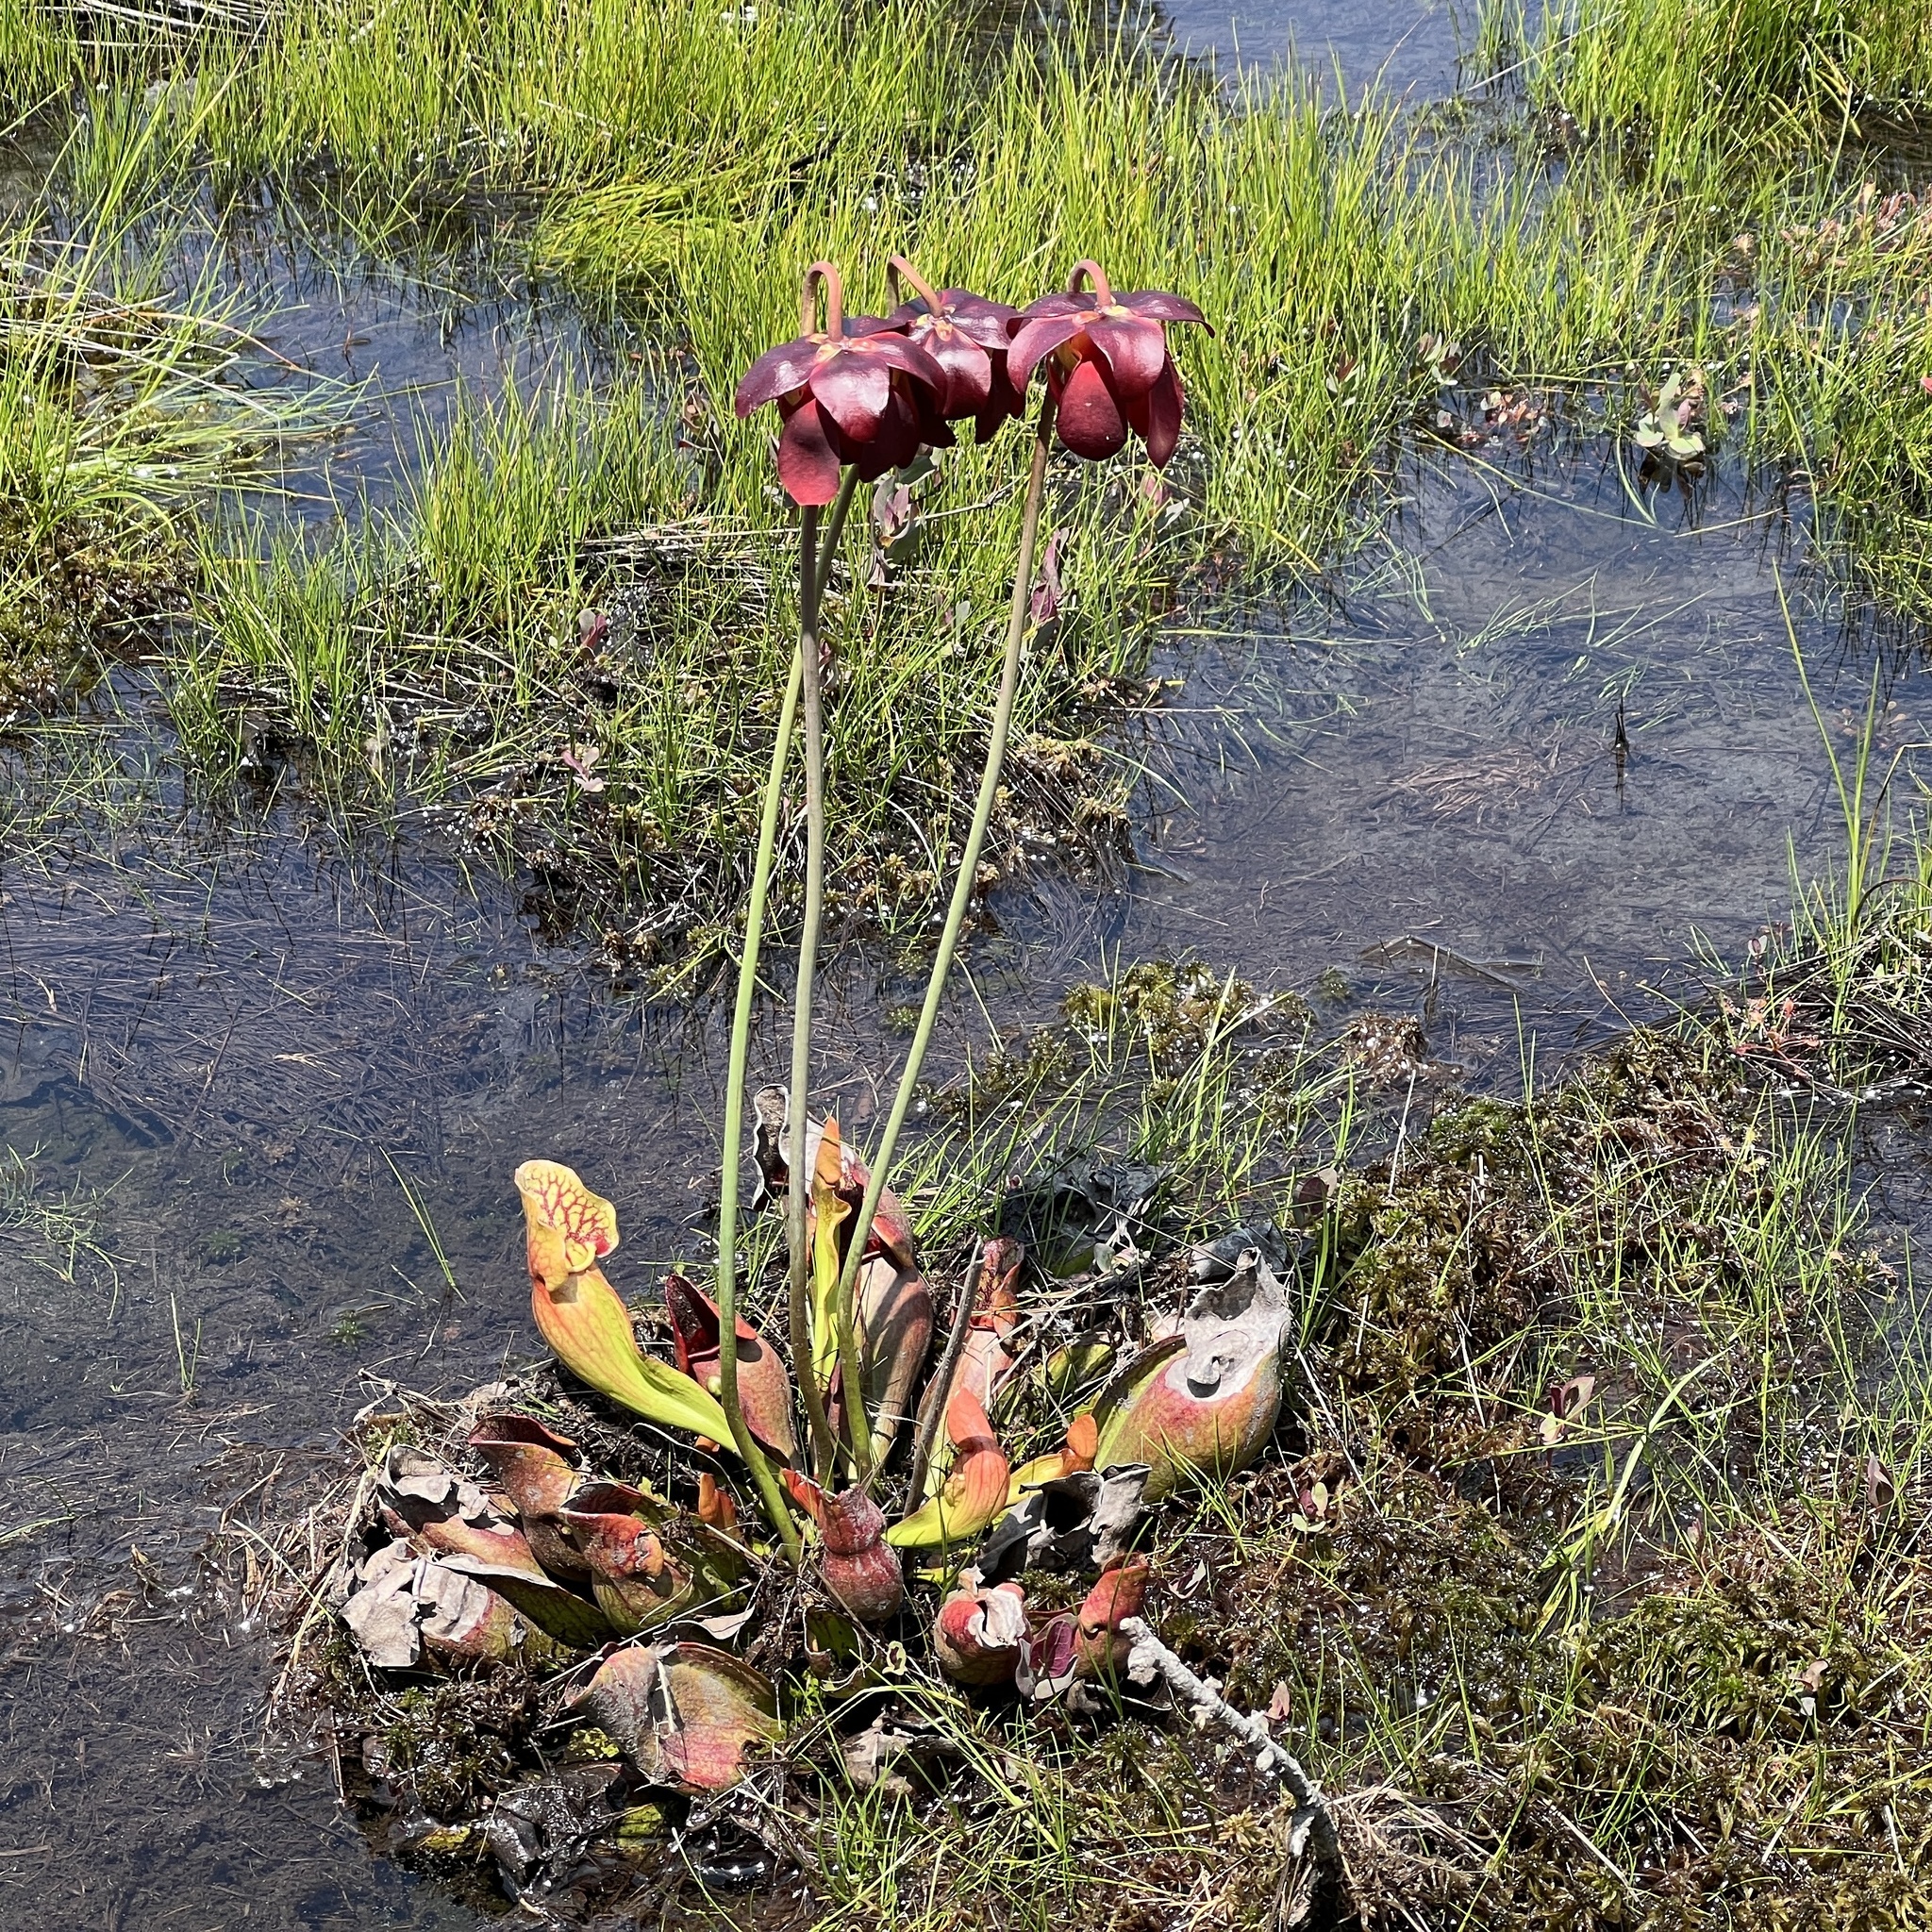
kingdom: Plantae
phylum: Tracheophyta
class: Magnoliopsida
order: Ericales
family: Sarraceniaceae
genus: Sarracenia
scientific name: Sarracenia purpurea
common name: Pitcherplant
